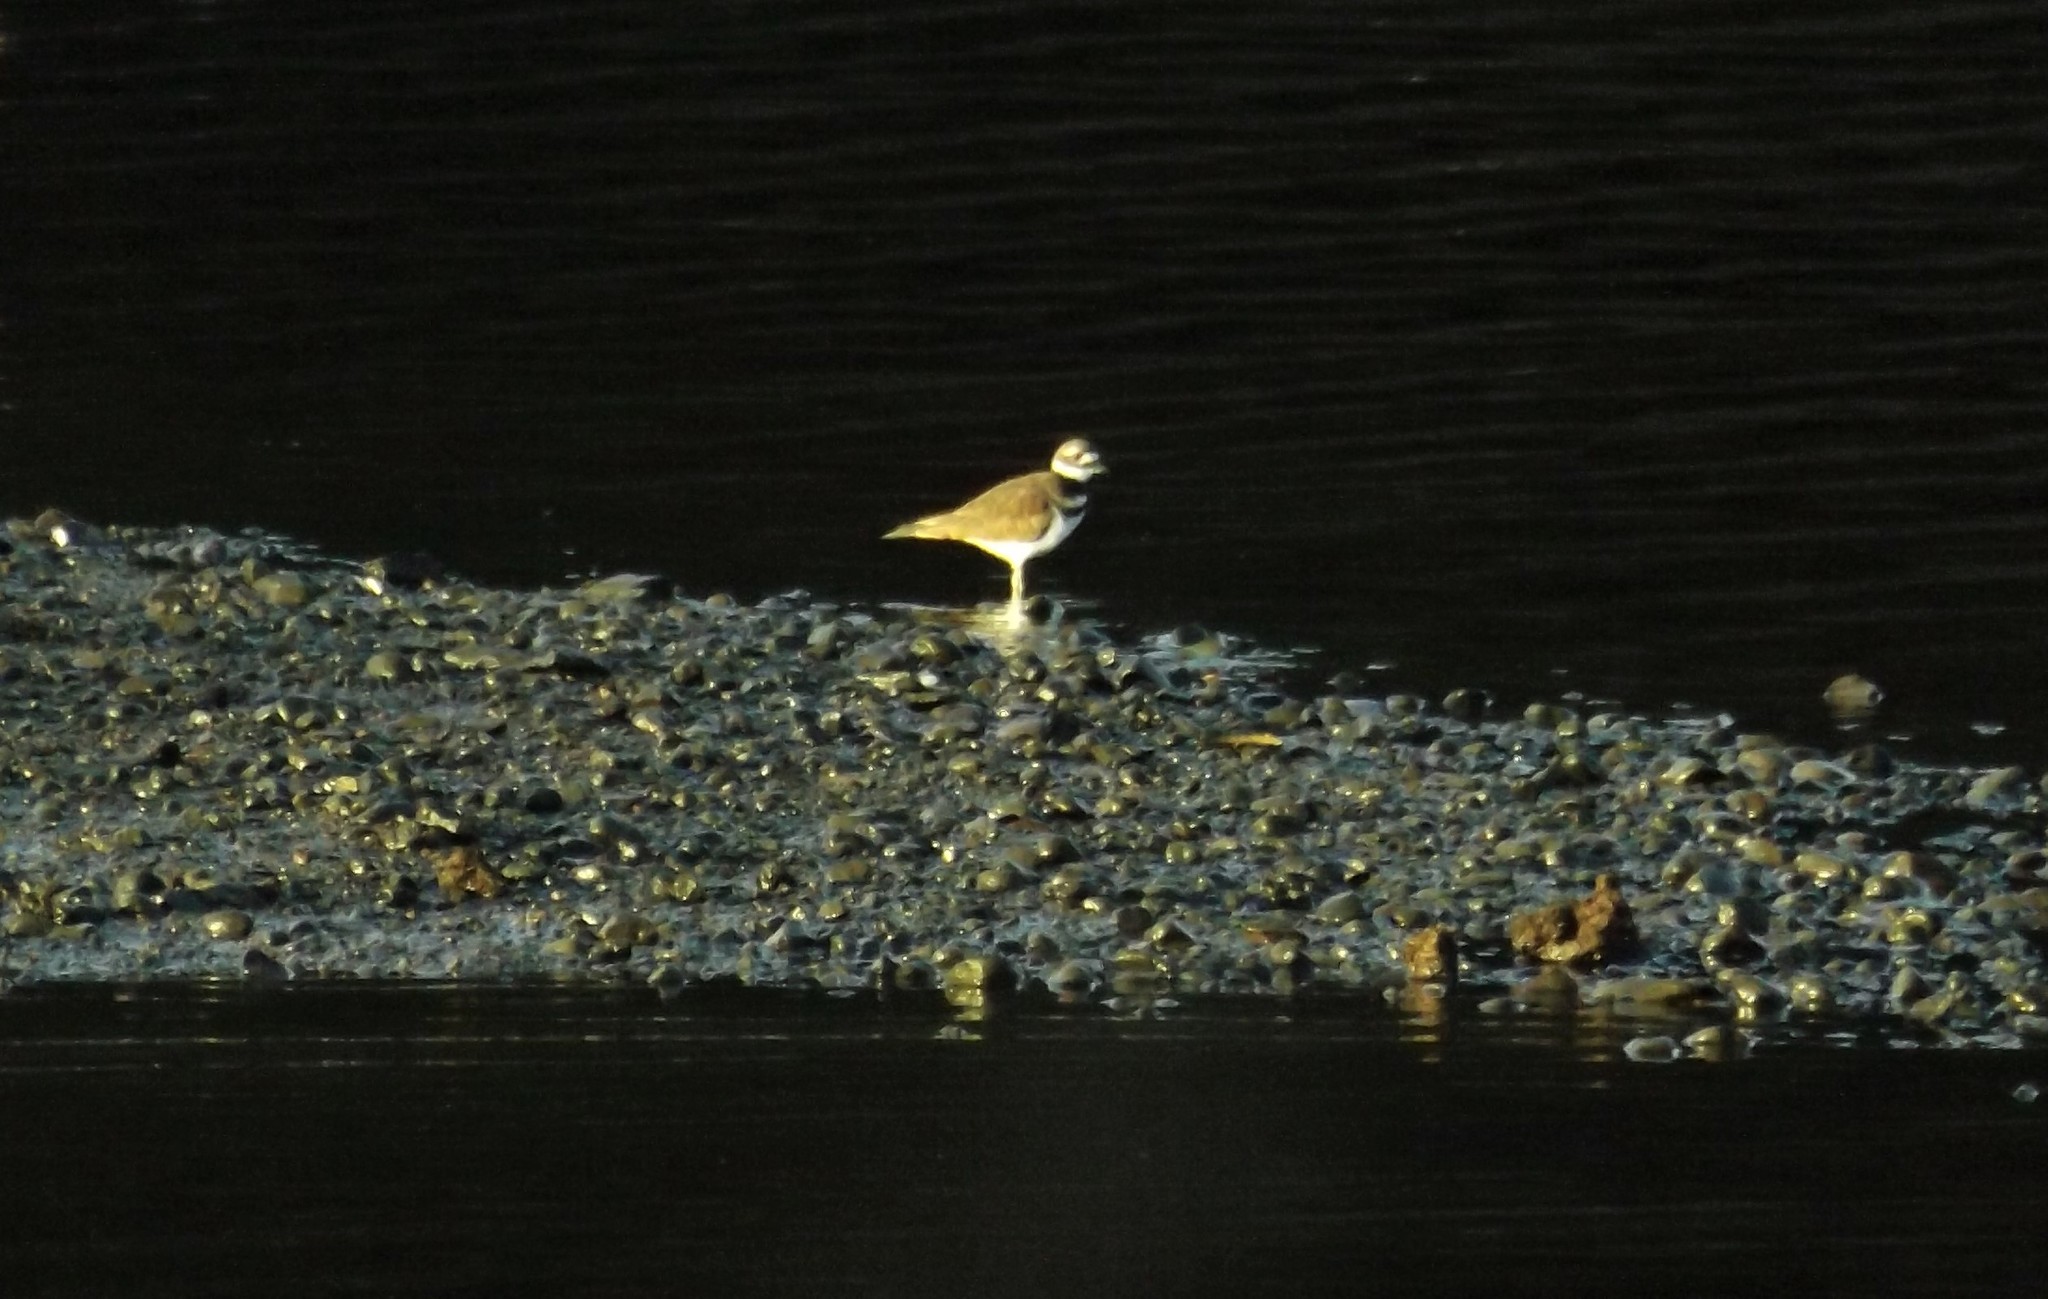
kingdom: Animalia
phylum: Chordata
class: Aves
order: Charadriiformes
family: Charadriidae
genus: Charadrius
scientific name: Charadrius vociferus
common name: Killdeer
